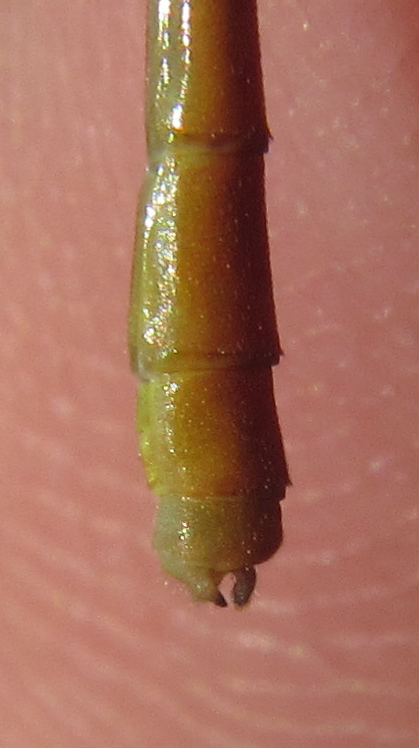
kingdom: Animalia
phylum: Arthropoda
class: Insecta
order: Odonata
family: Coenagrionidae
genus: Ceriagrion
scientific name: Ceriagrion suave
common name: Plain waxtail
